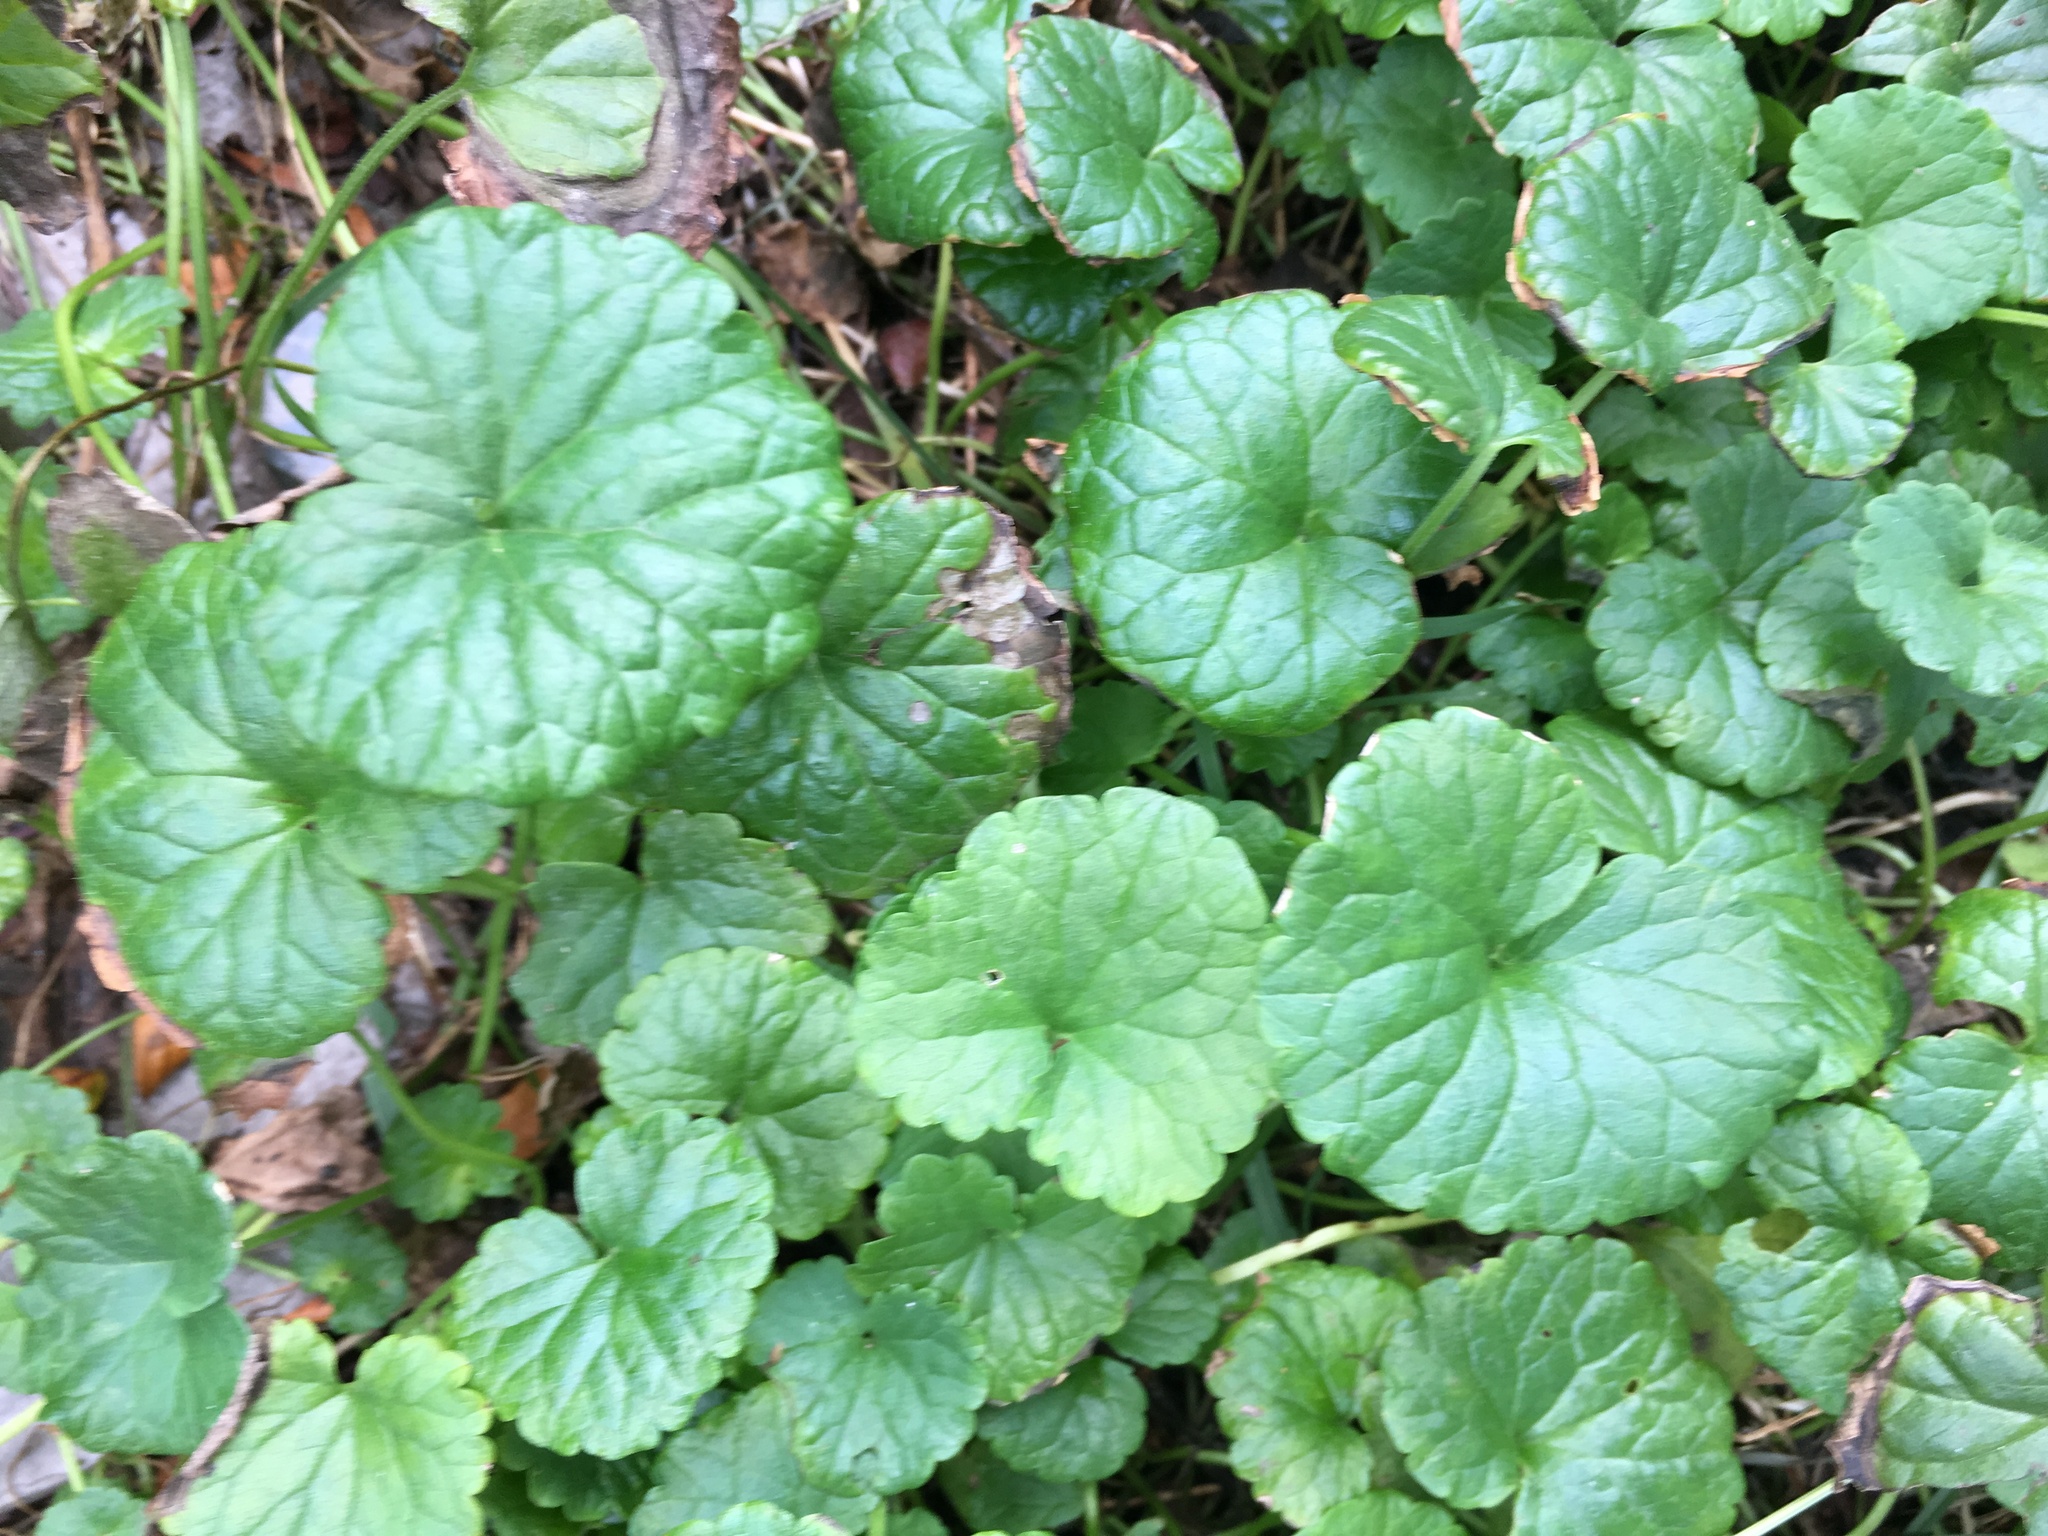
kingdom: Plantae
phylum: Tracheophyta
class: Magnoliopsida
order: Lamiales
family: Lamiaceae
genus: Glechoma
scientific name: Glechoma hederacea
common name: Ground ivy
